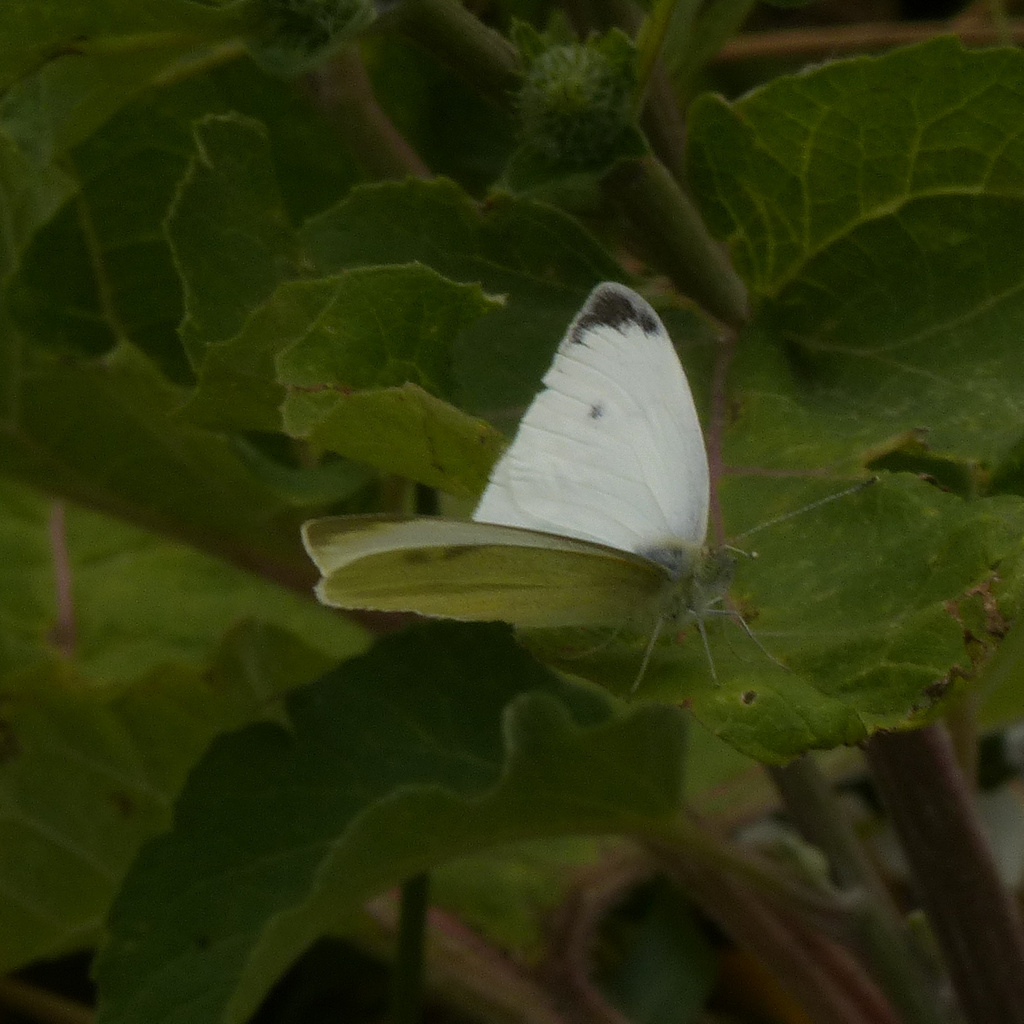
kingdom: Animalia
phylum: Arthropoda
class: Insecta
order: Lepidoptera
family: Pieridae
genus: Pieris
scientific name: Pieris rapae
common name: Small white
